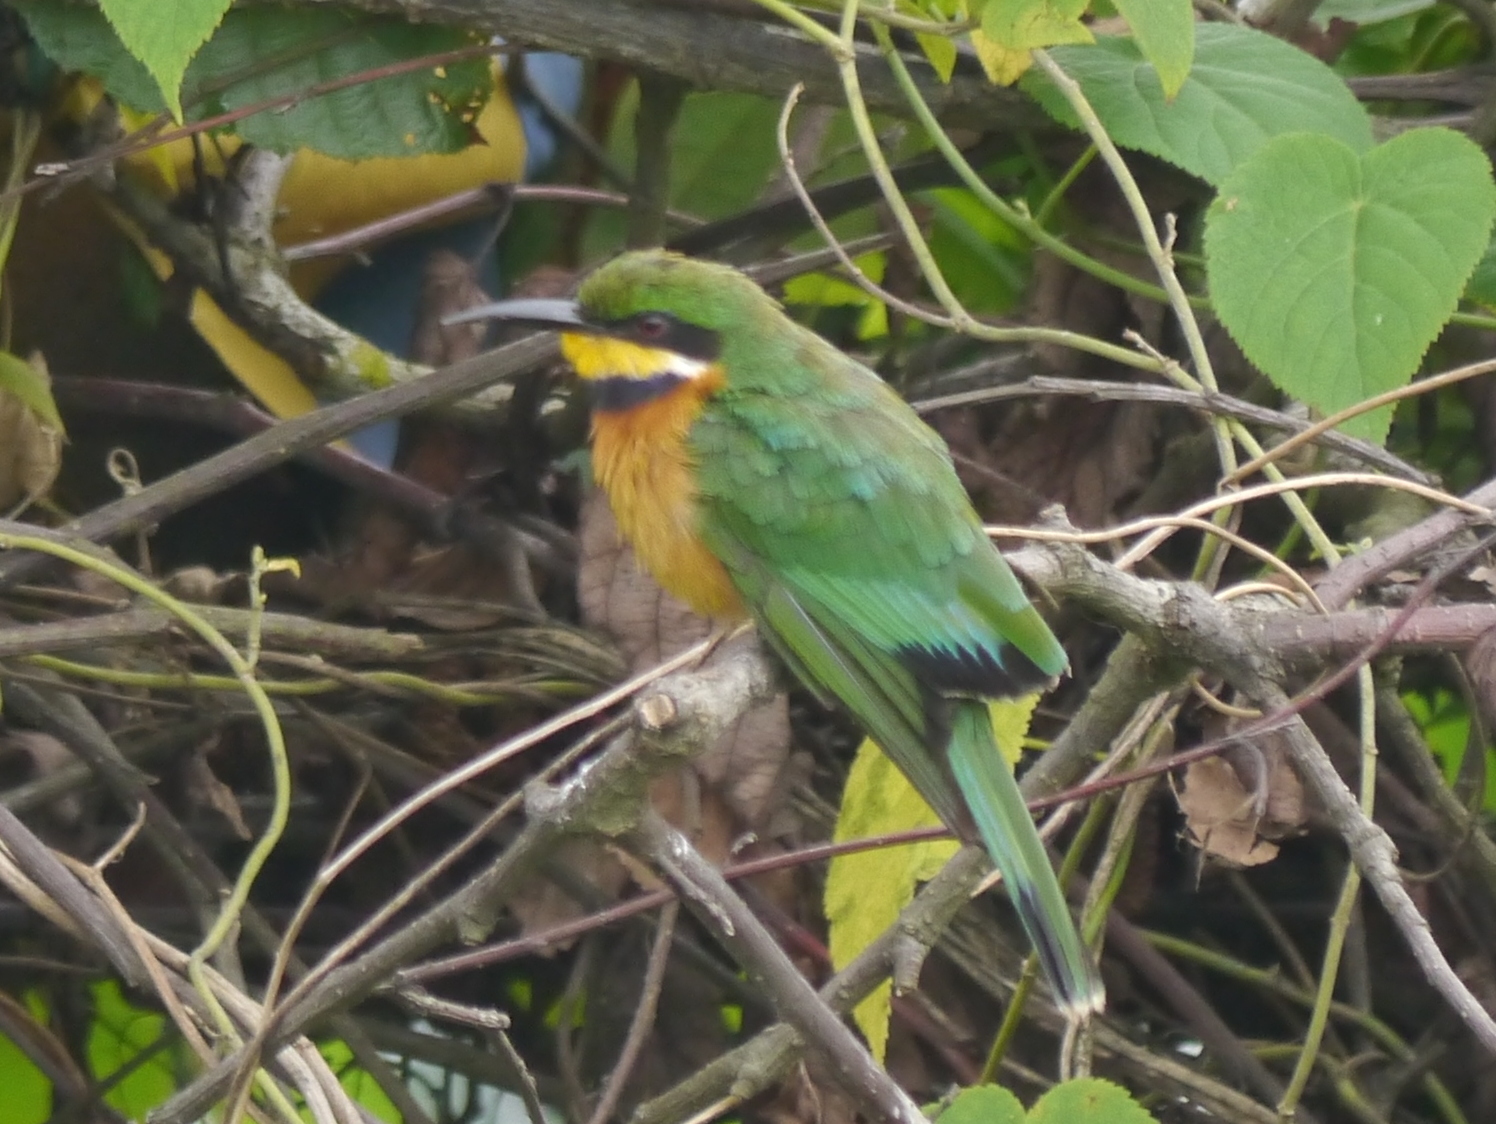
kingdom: Animalia
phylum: Chordata
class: Aves
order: Coraciiformes
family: Meropidae
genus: Merops
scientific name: Merops oreobates
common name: Cinnamon-chested bee-eater
